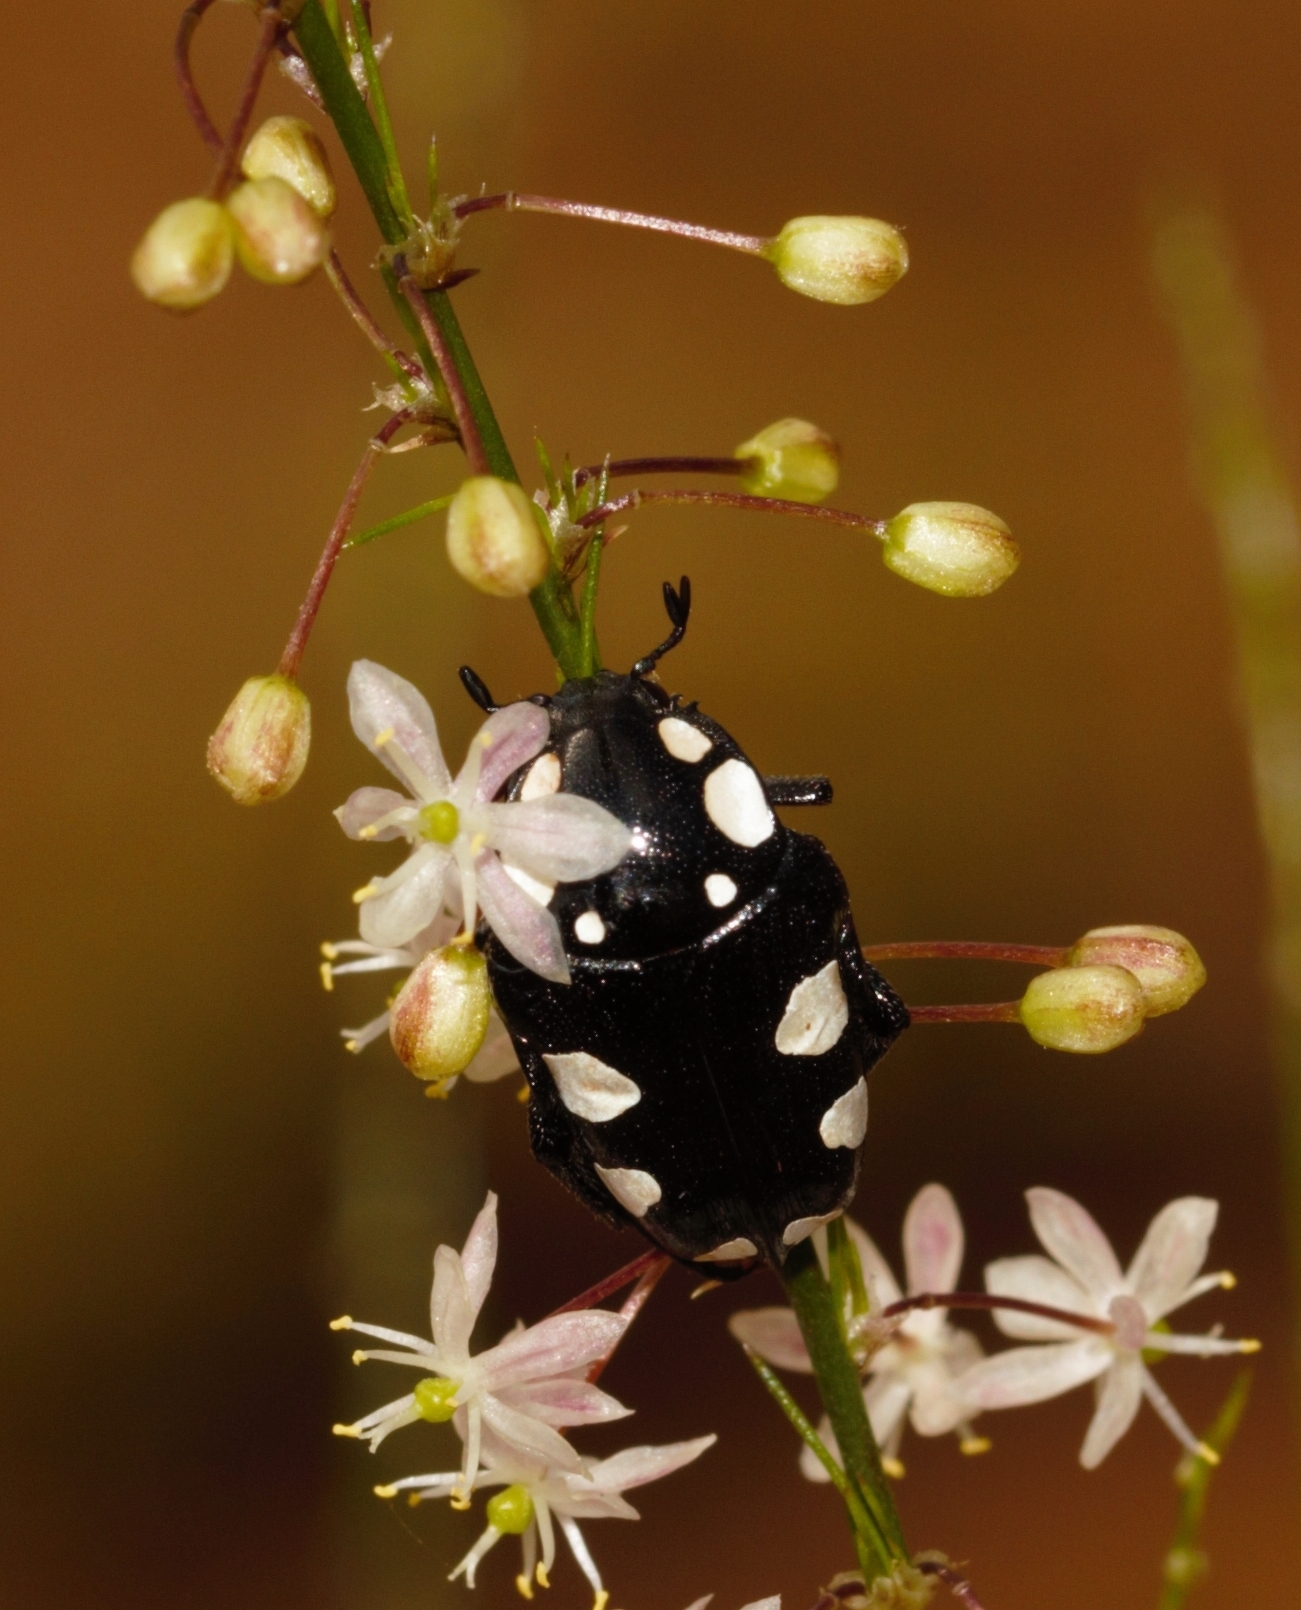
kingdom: Animalia
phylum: Arthropoda
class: Insecta
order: Coleoptera
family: Scarabaeidae
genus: Mausoleopsis
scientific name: Mausoleopsis amabilis
